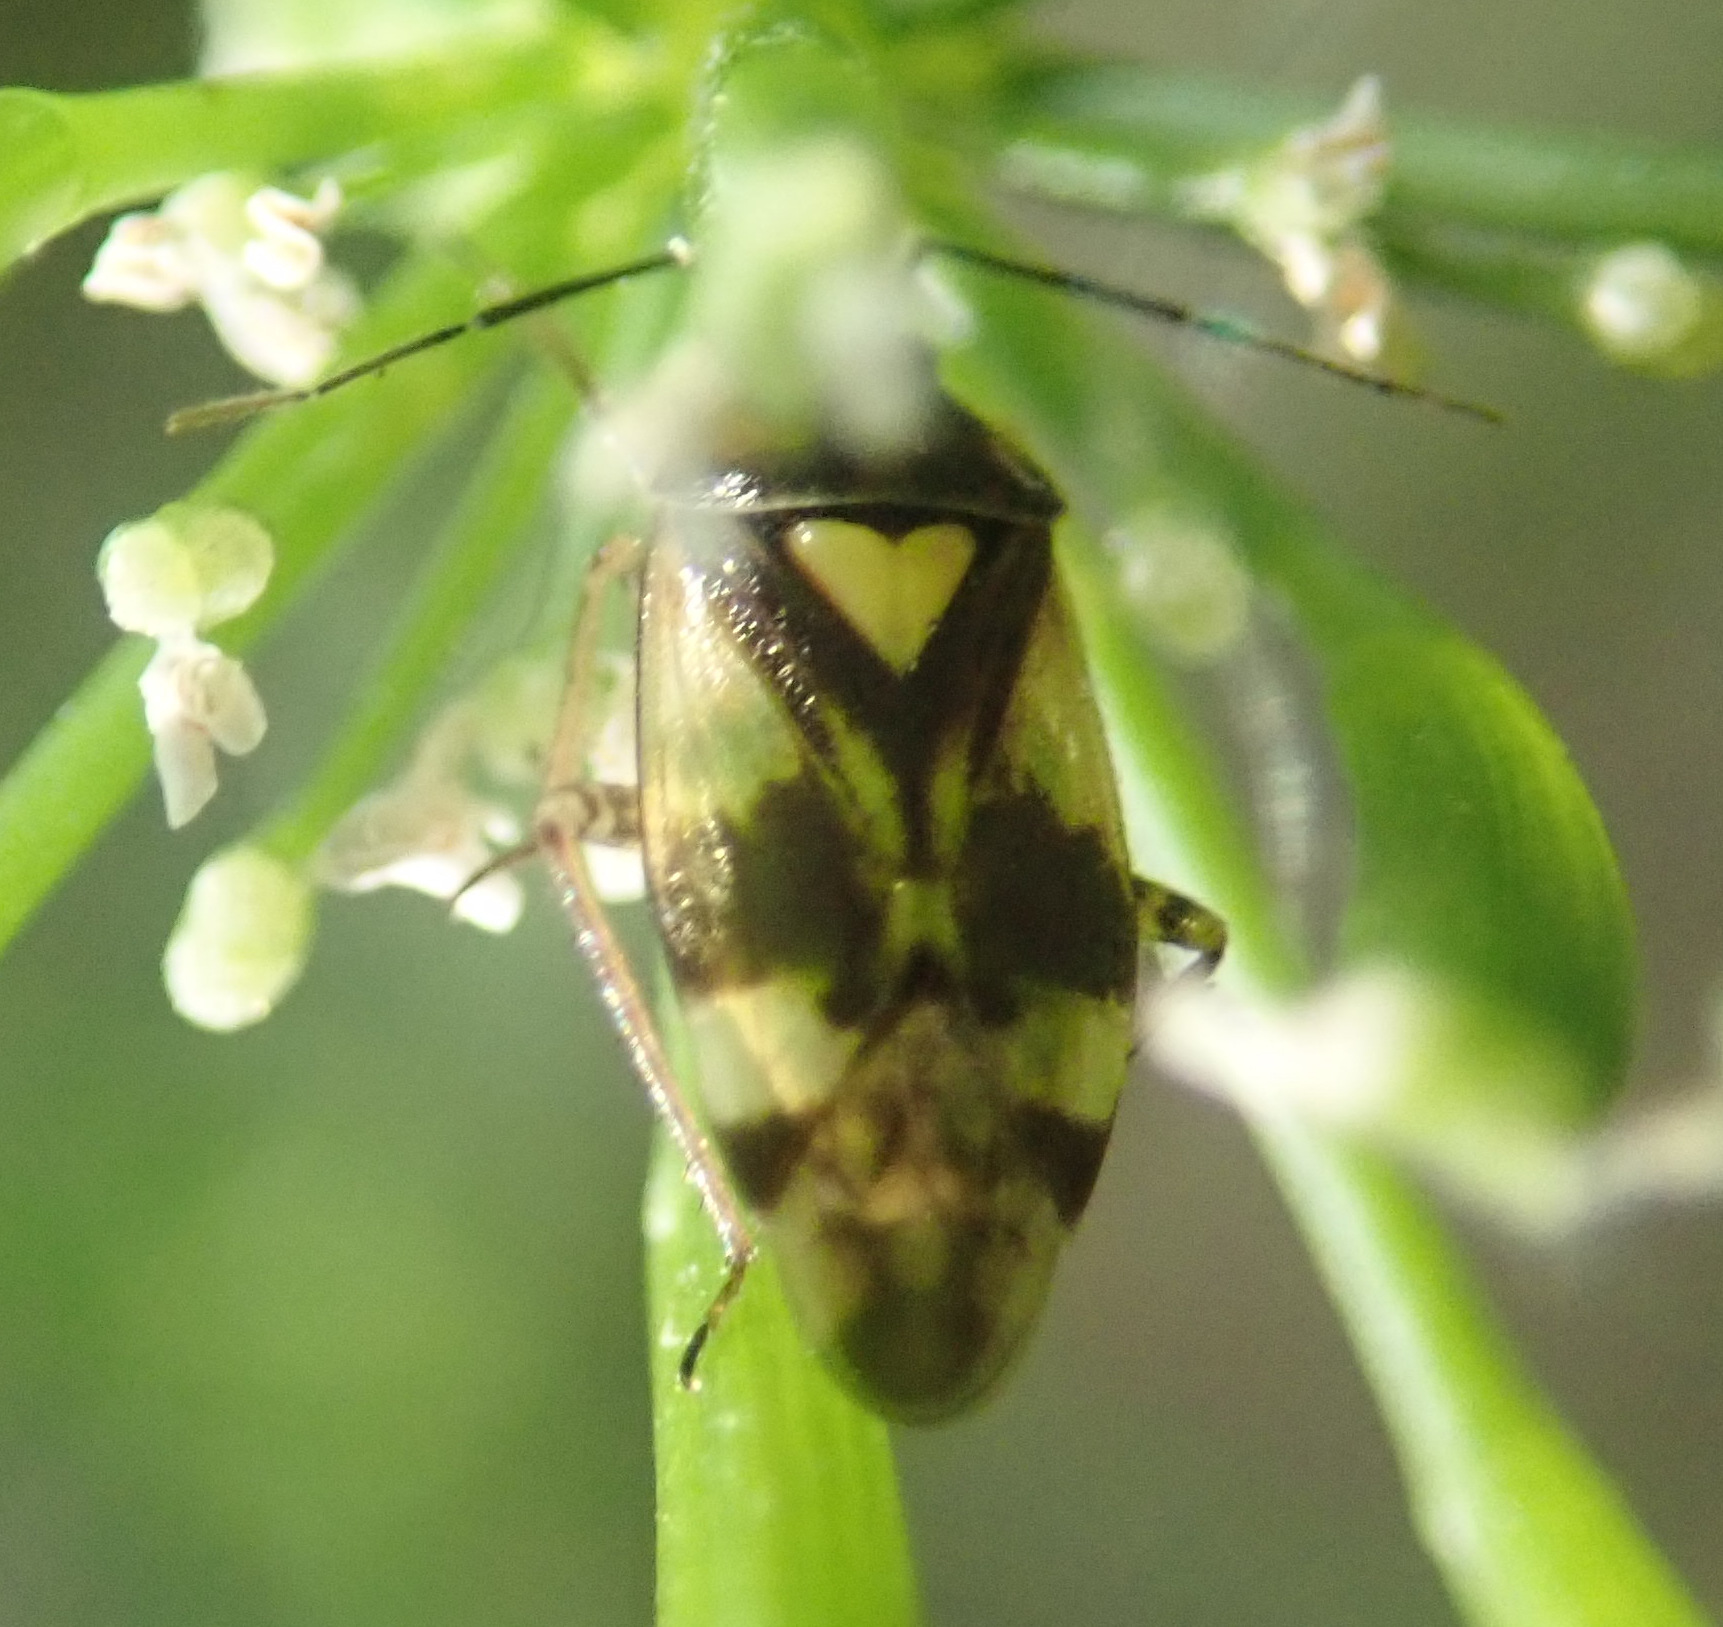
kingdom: Animalia
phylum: Arthropoda
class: Insecta
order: Hemiptera
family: Miridae
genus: Orthops
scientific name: Orthops basalis
